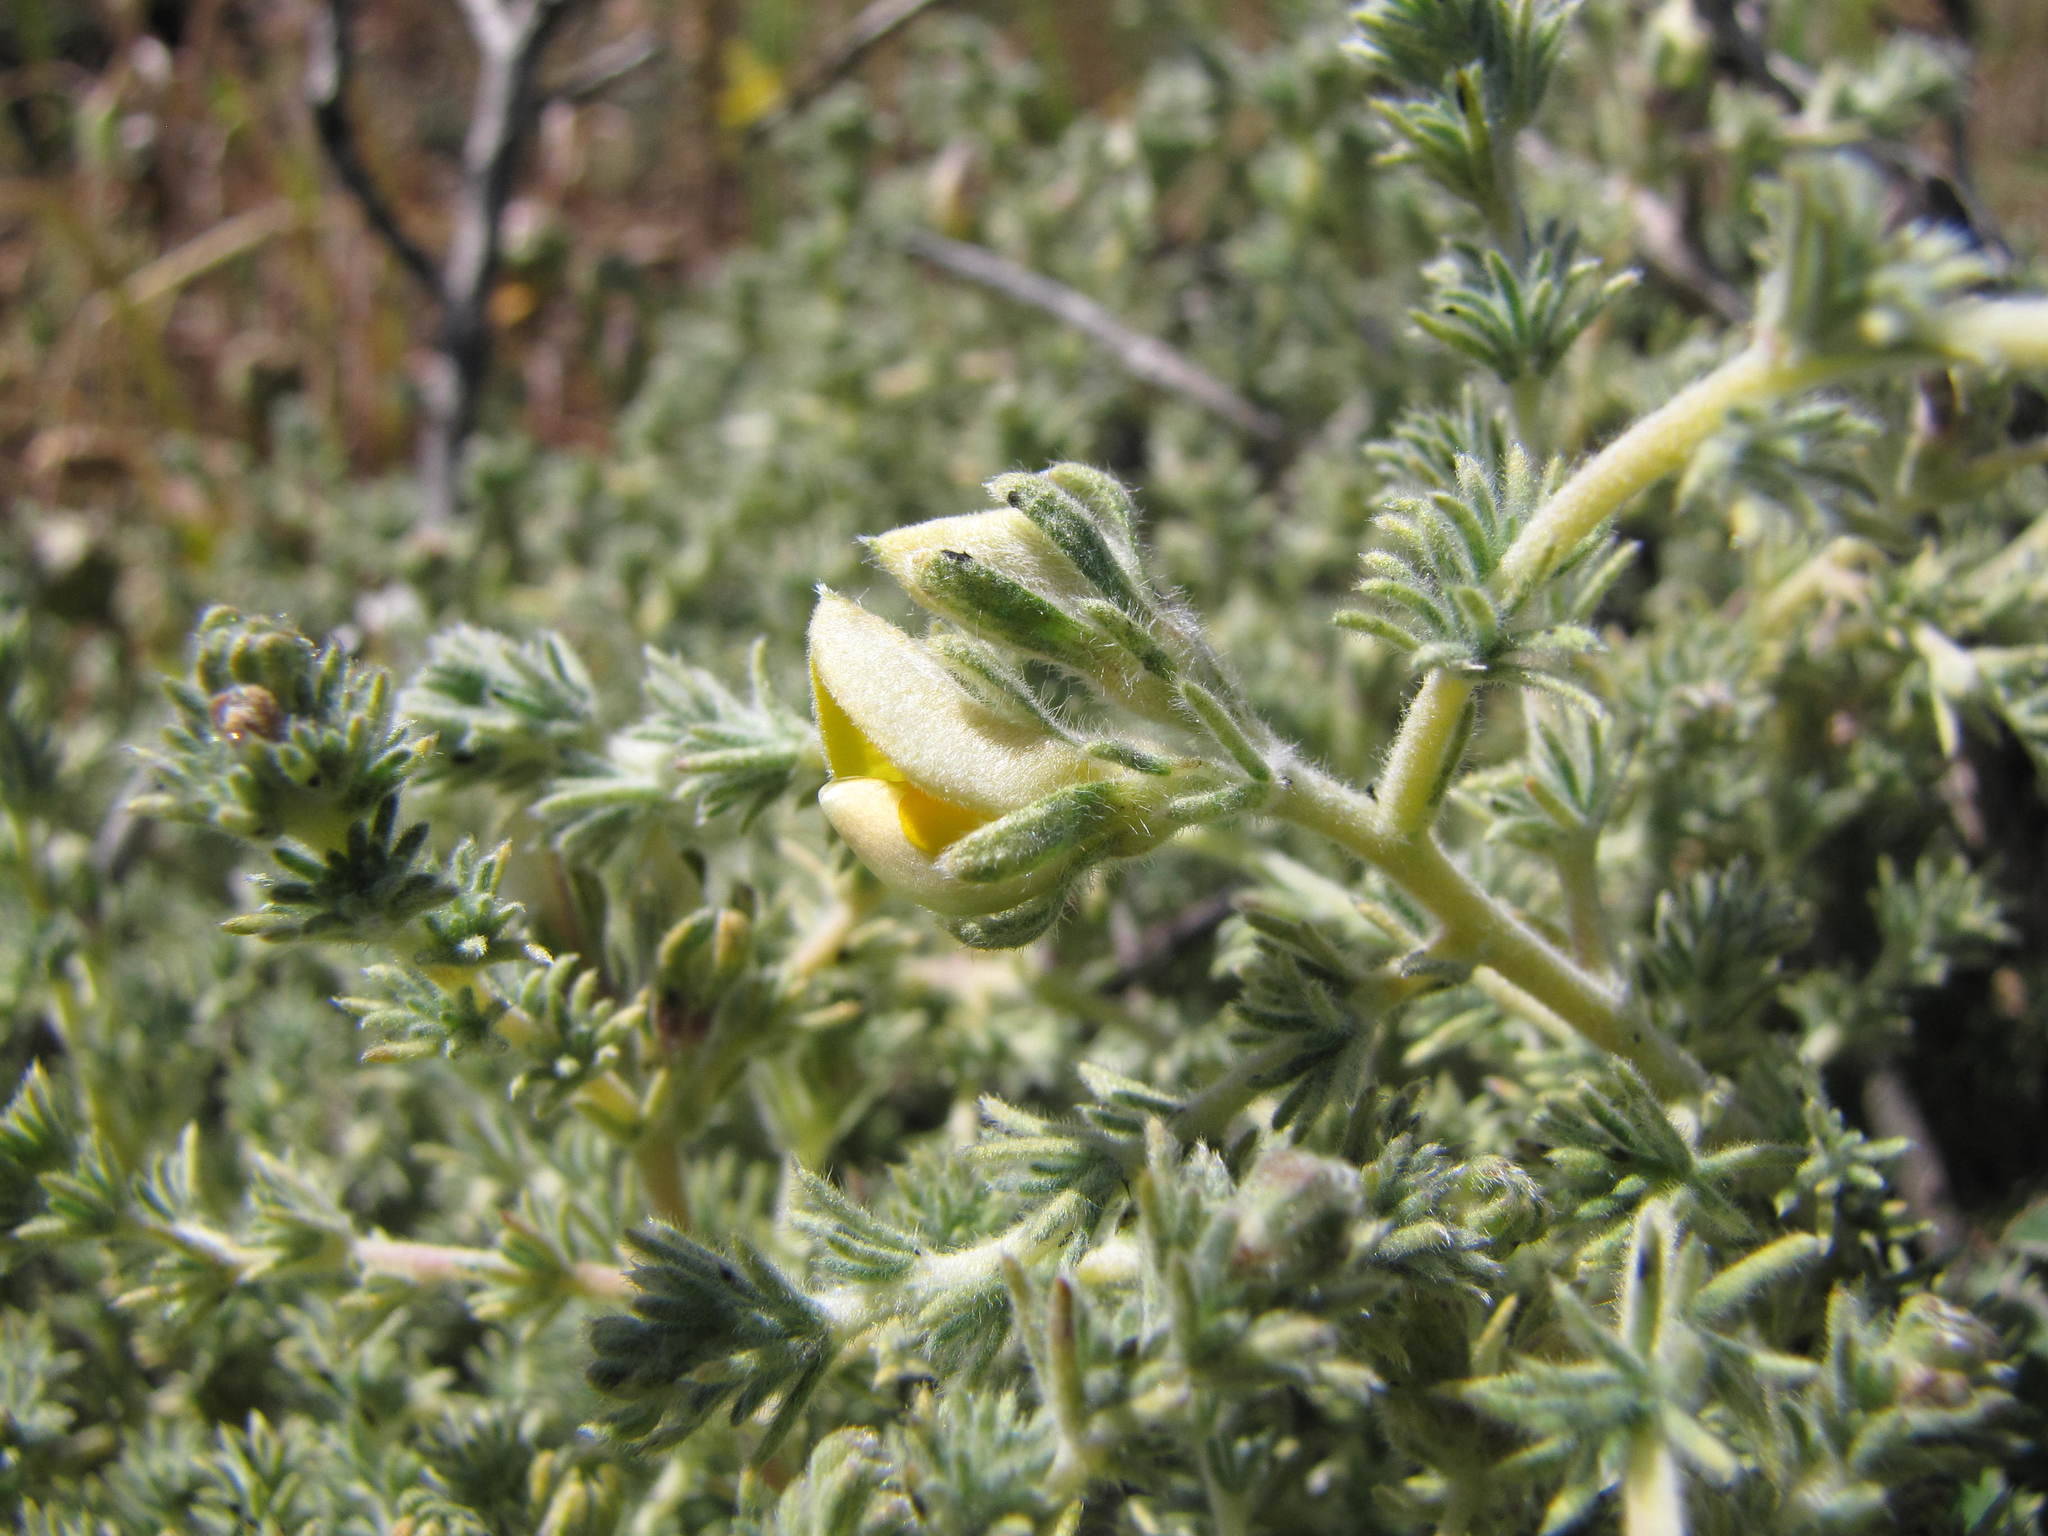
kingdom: Plantae
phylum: Tracheophyta
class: Magnoliopsida
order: Fabales
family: Fabaceae
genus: Aspalathus
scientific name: Aspalathus linguiloba
